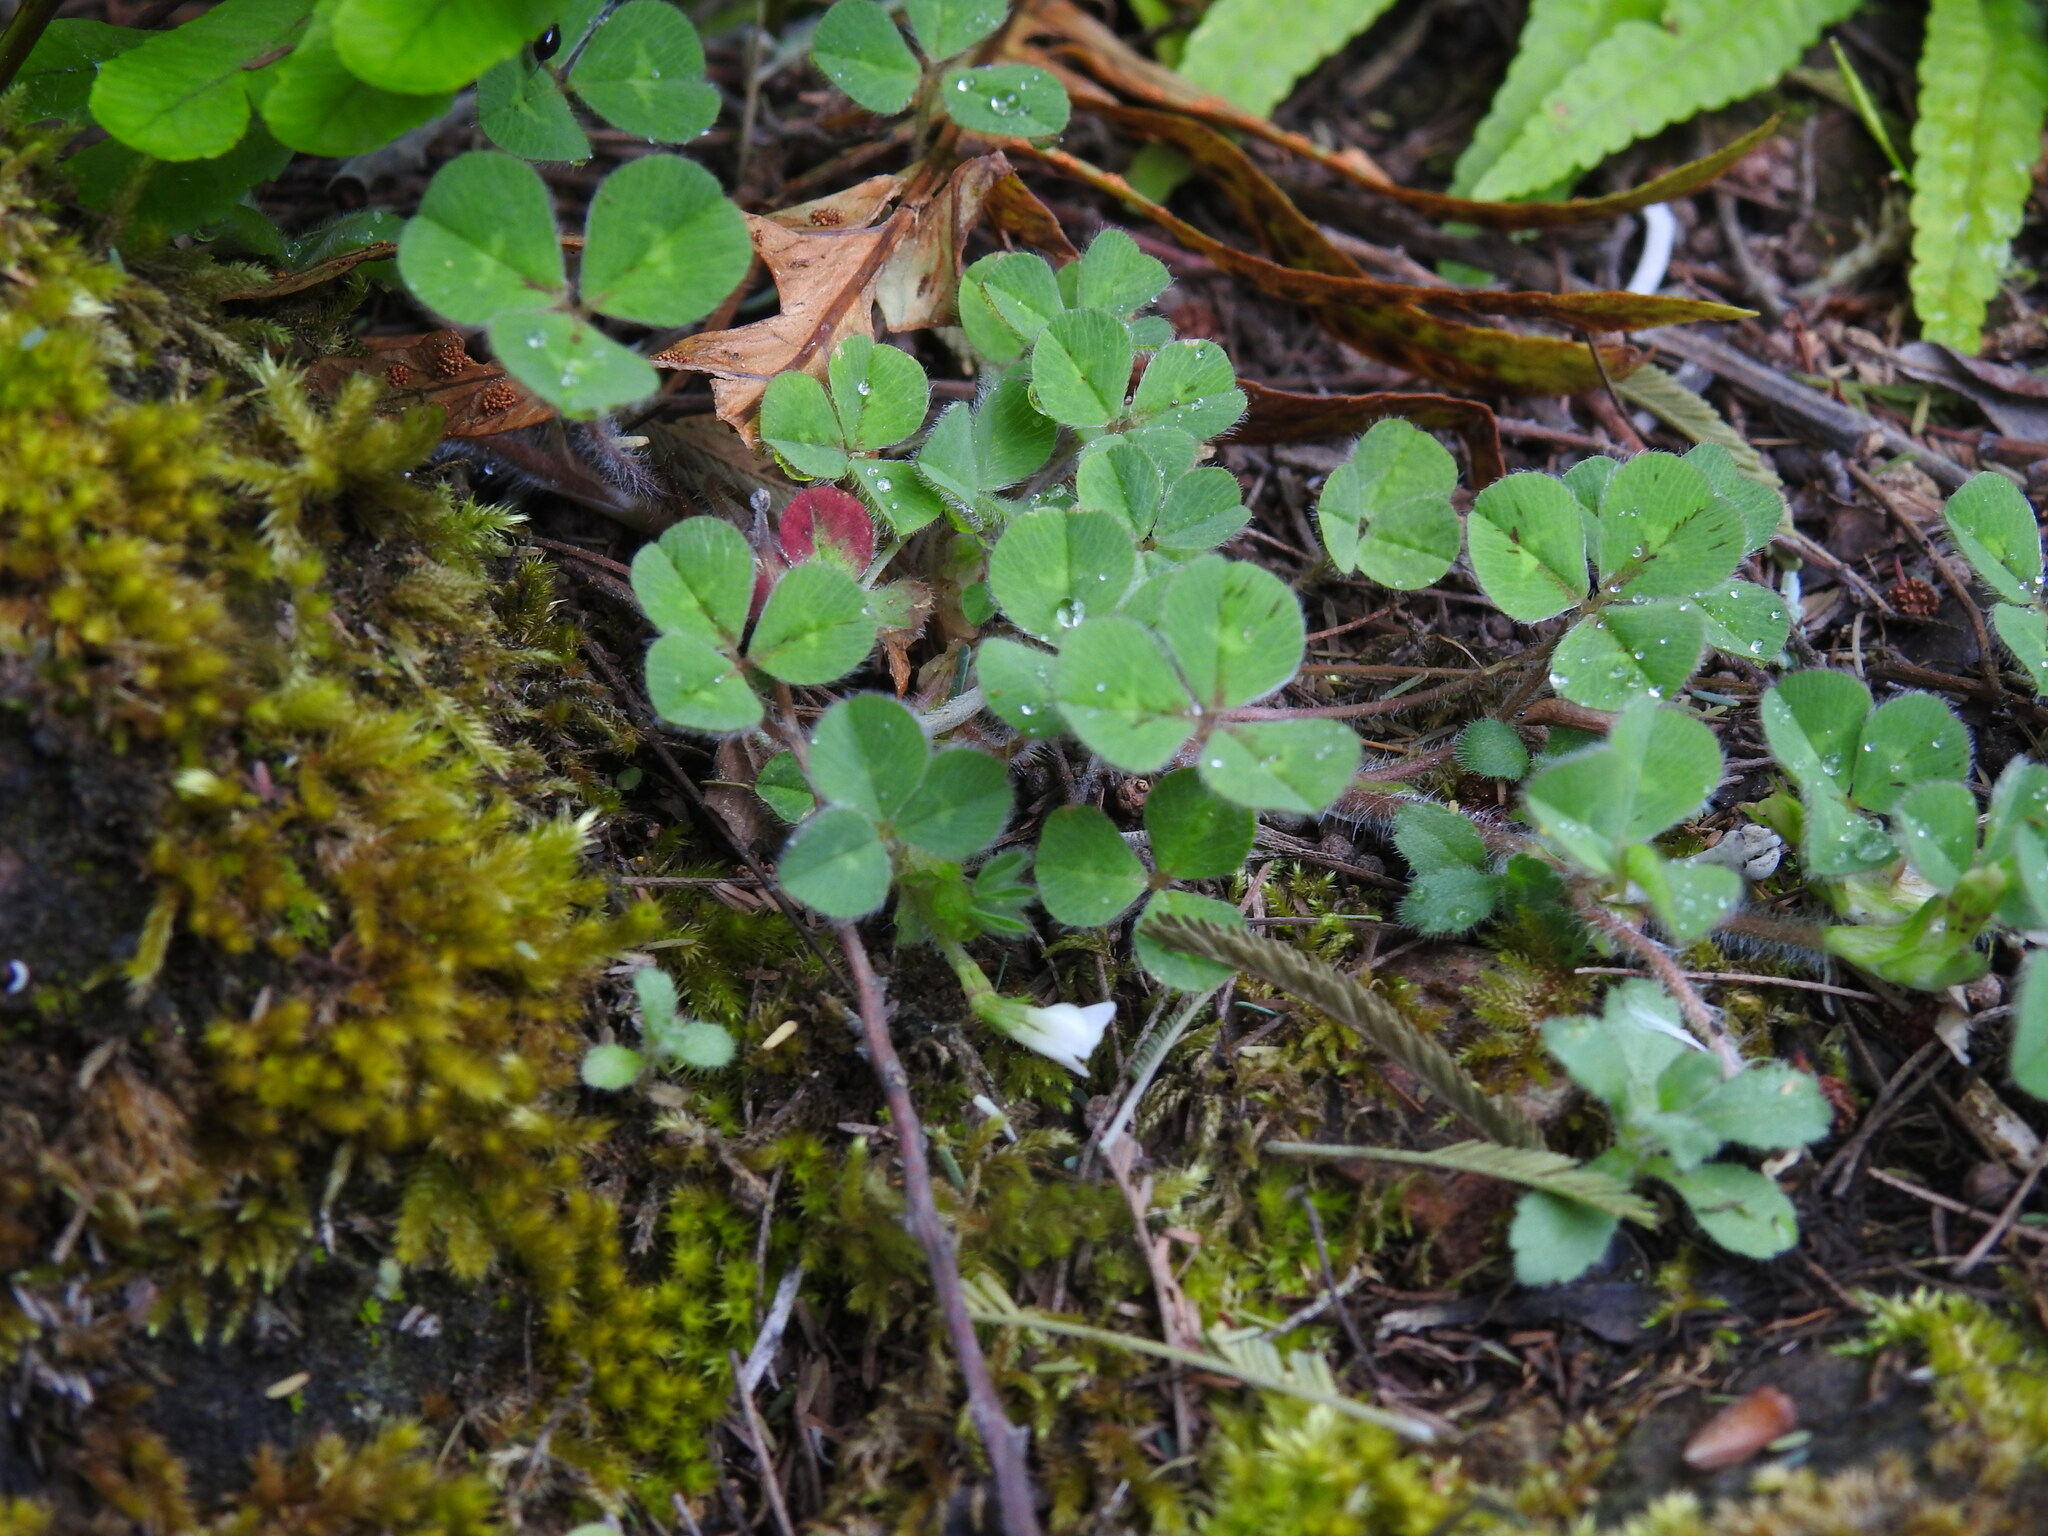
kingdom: Plantae
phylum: Tracheophyta
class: Magnoliopsida
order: Fabales
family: Fabaceae
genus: Trifolium
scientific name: Trifolium subterraneum
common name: Subterranean clover
